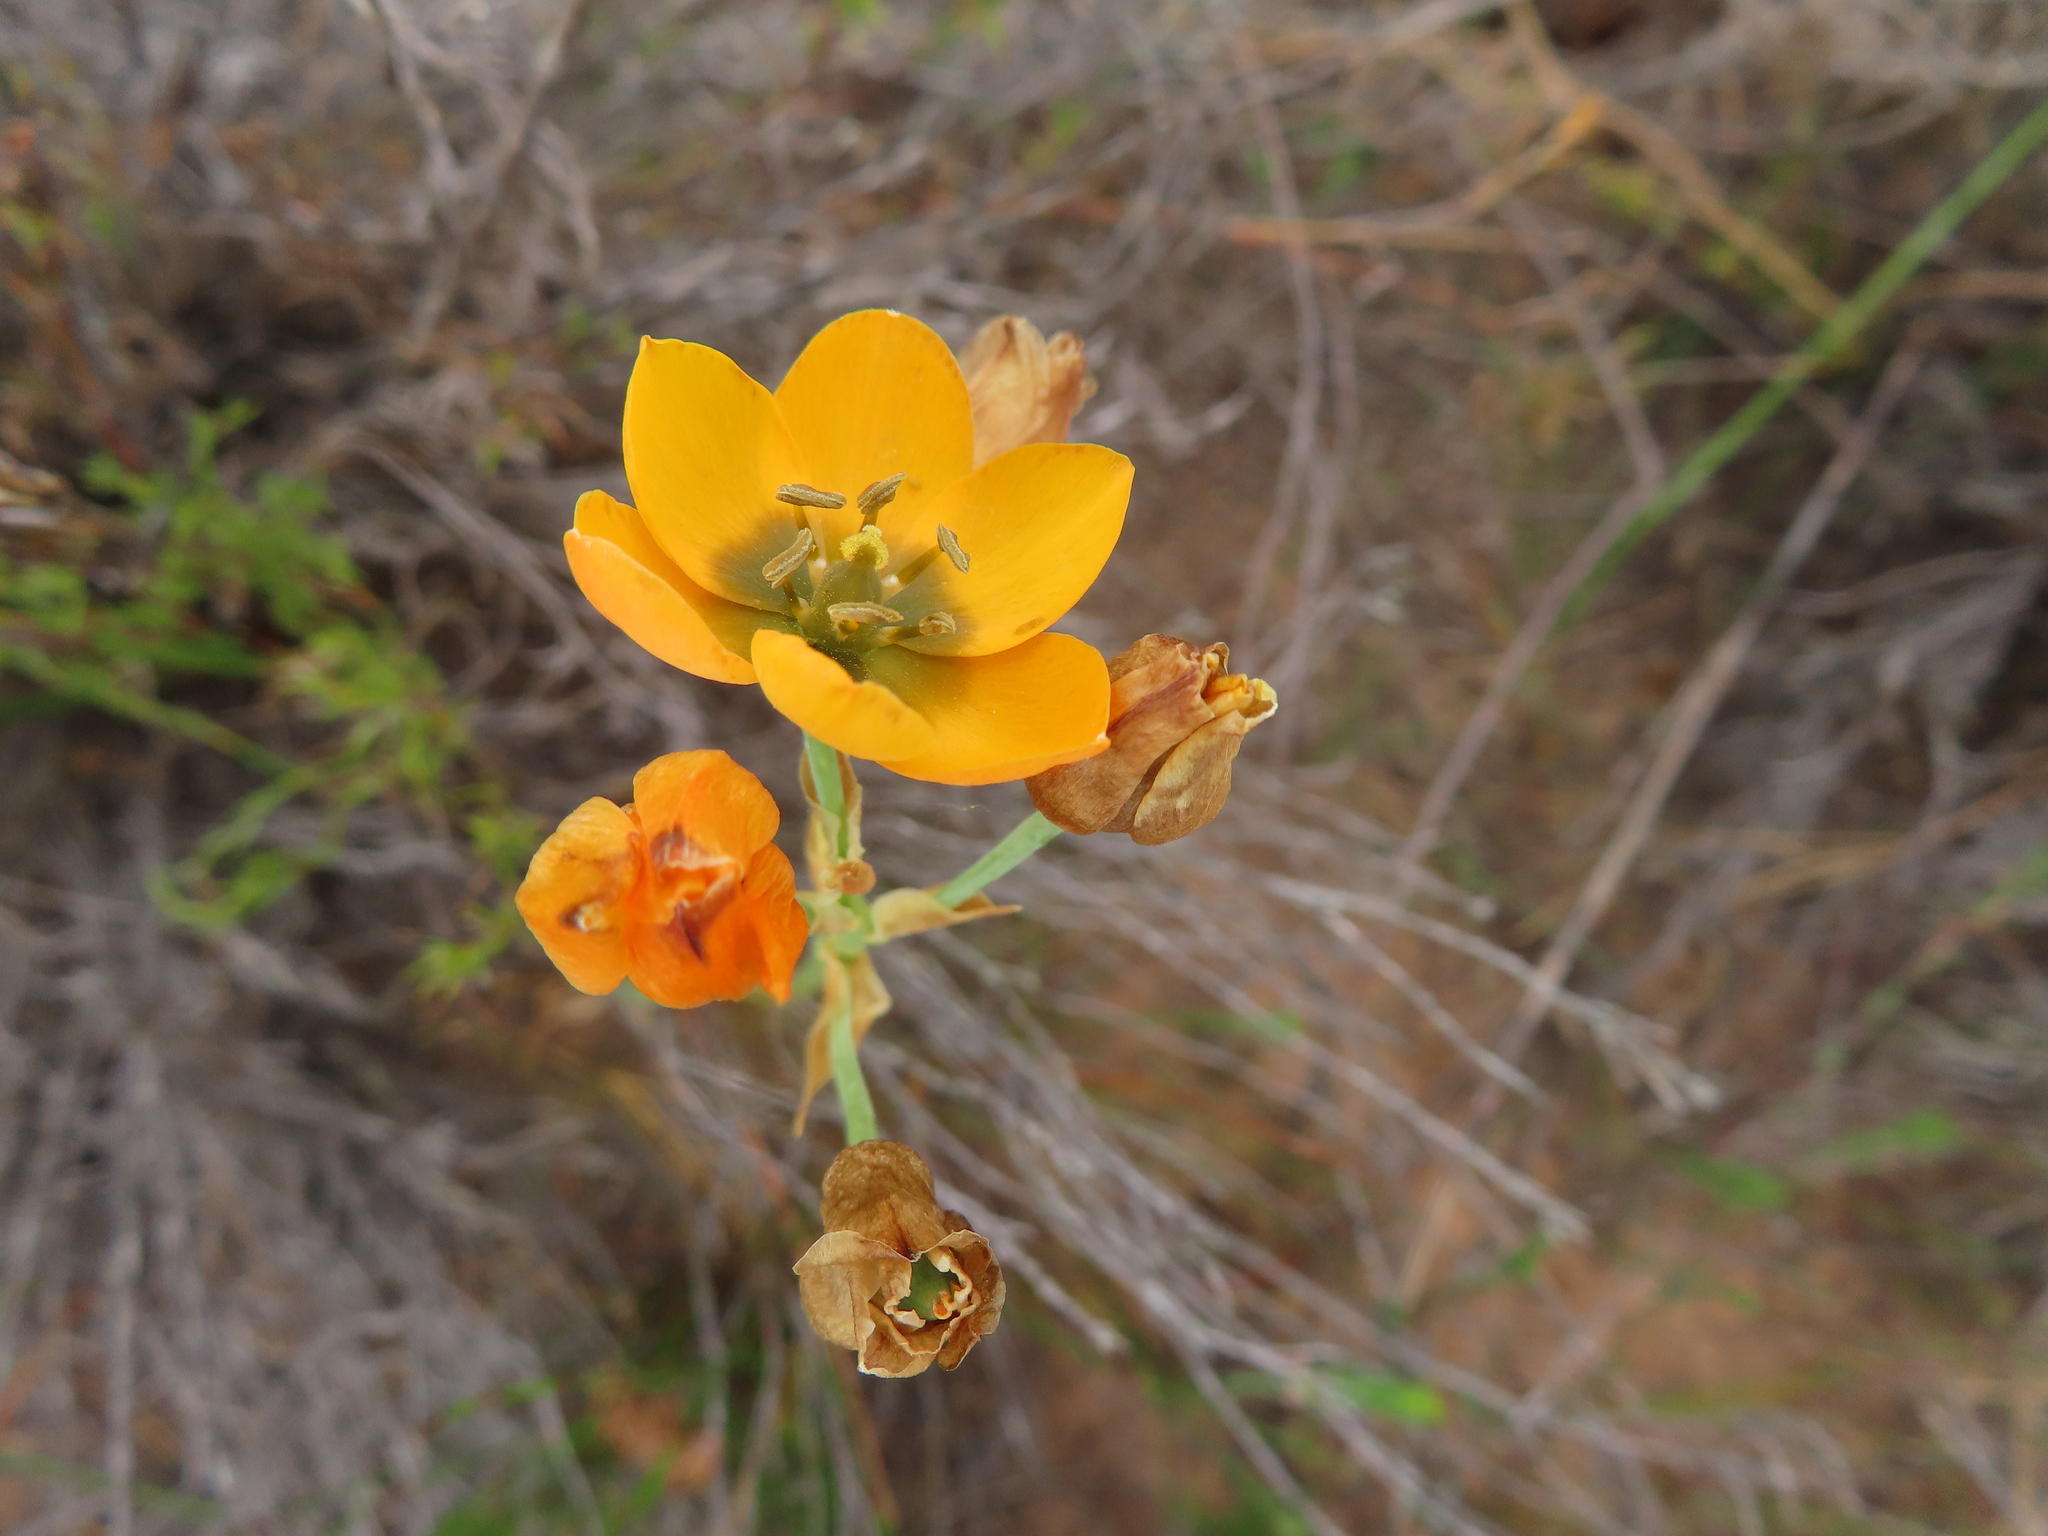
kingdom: Plantae
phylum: Tracheophyta
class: Liliopsida
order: Asparagales
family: Asparagaceae
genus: Ornithogalum
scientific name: Ornithogalum dubium
